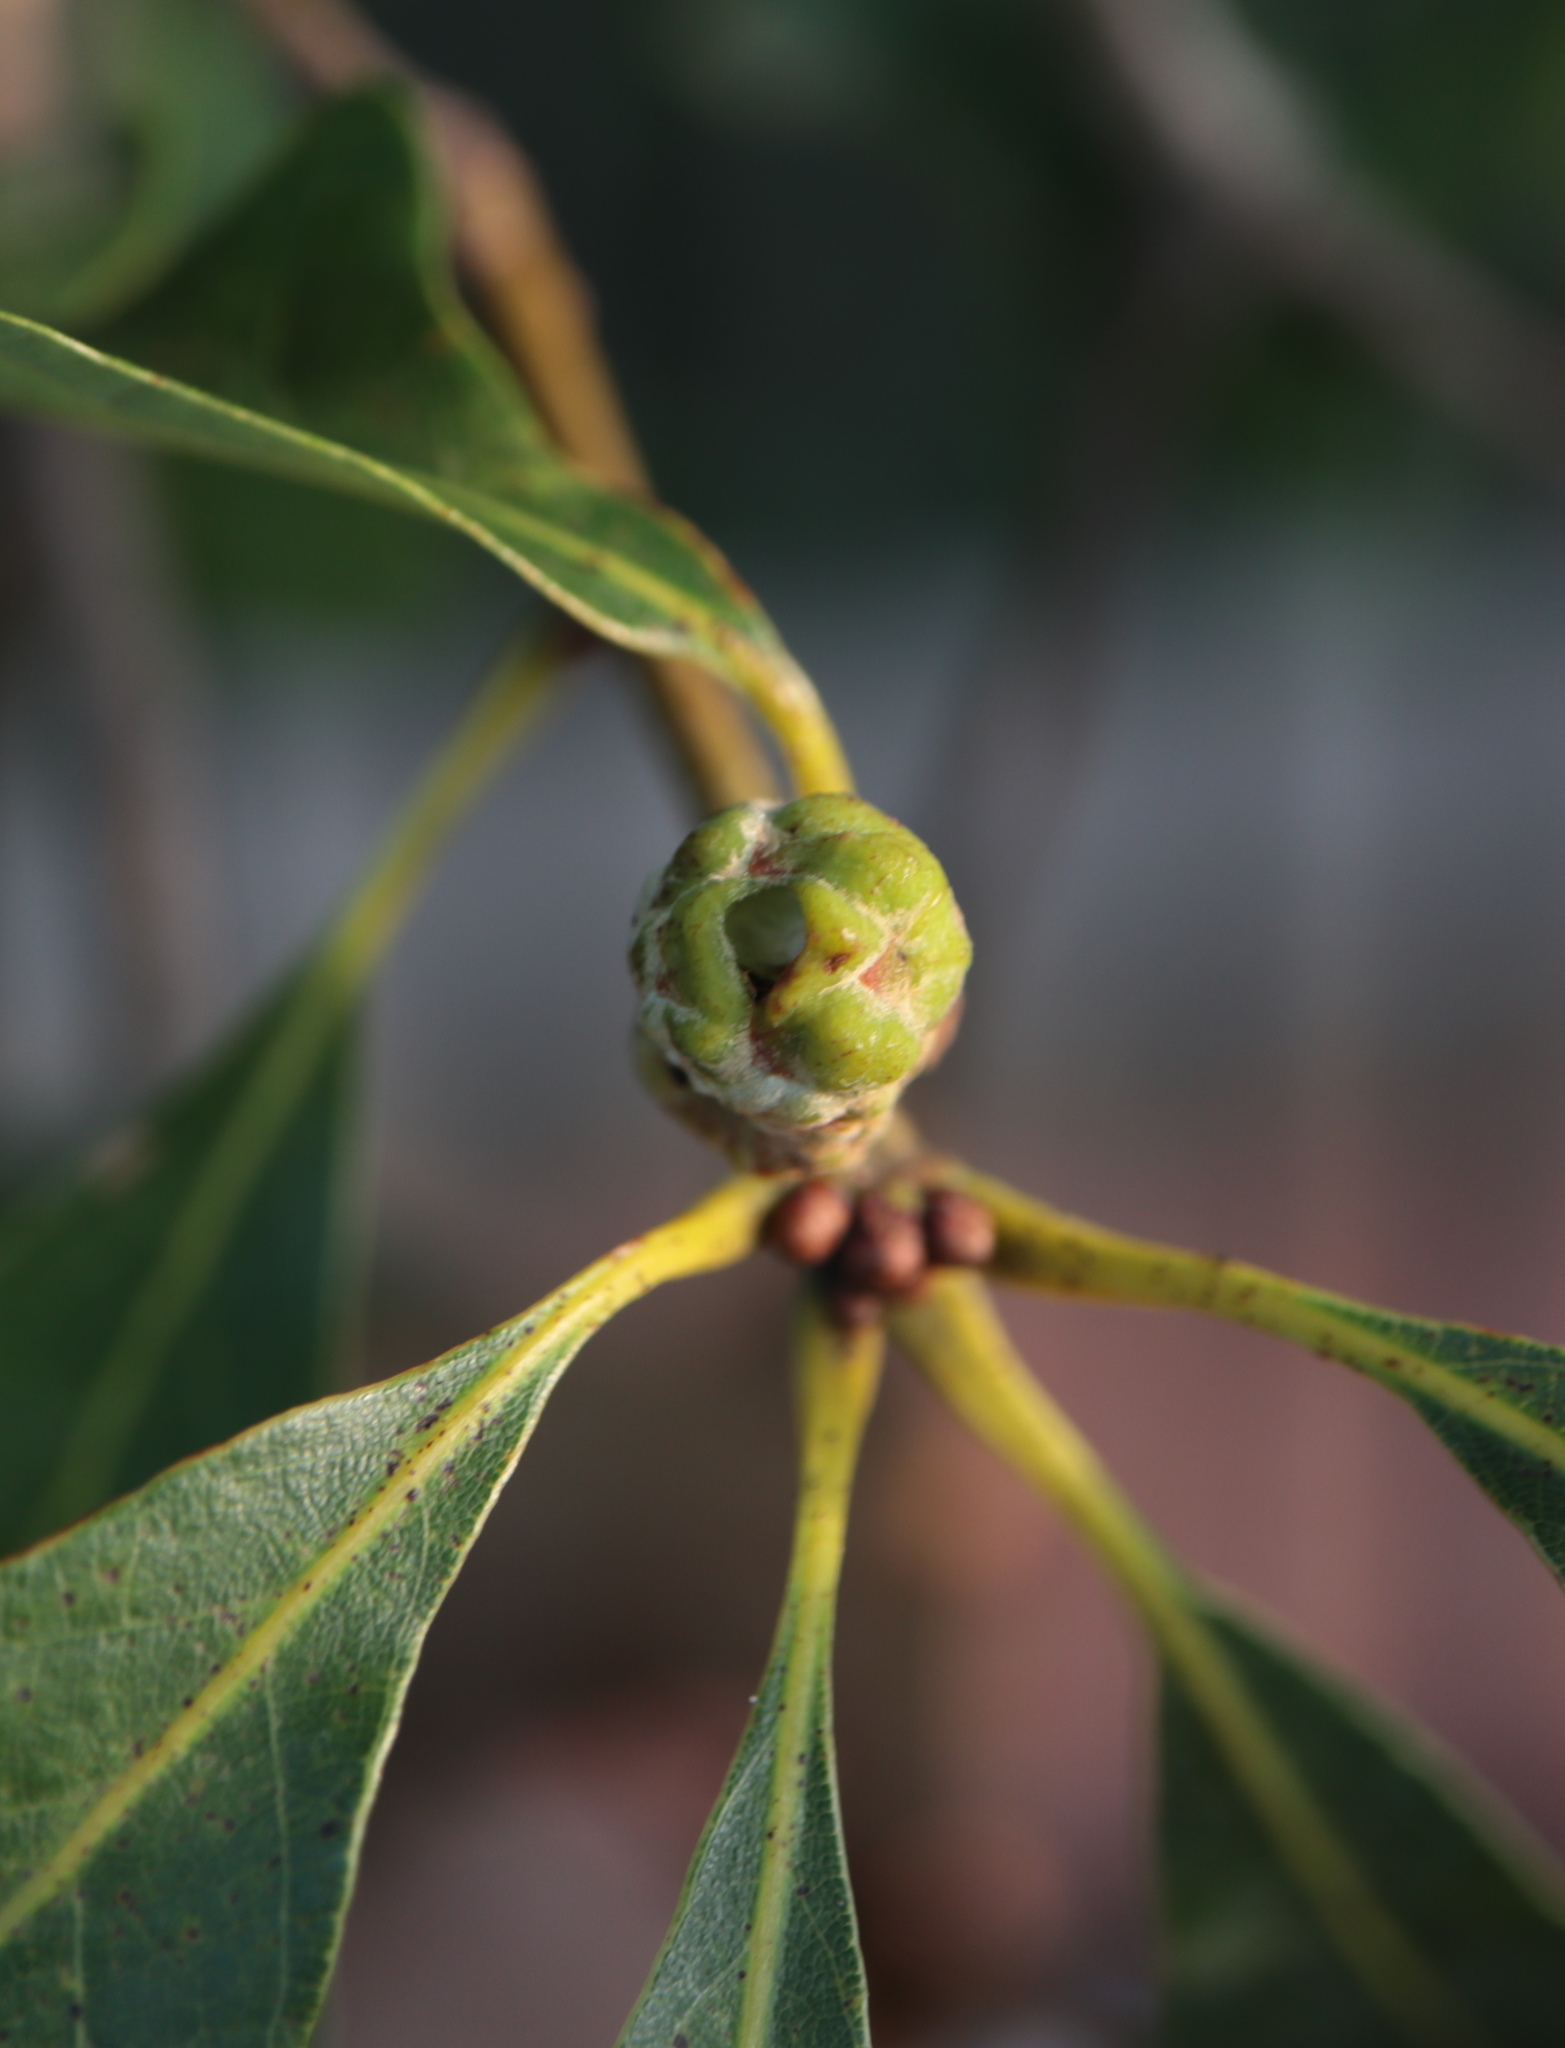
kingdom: Animalia
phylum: Arthropoda
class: Insecta
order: Hymenoptera
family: Cynipidae
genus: Callirhytis
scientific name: Callirhytis glandium
